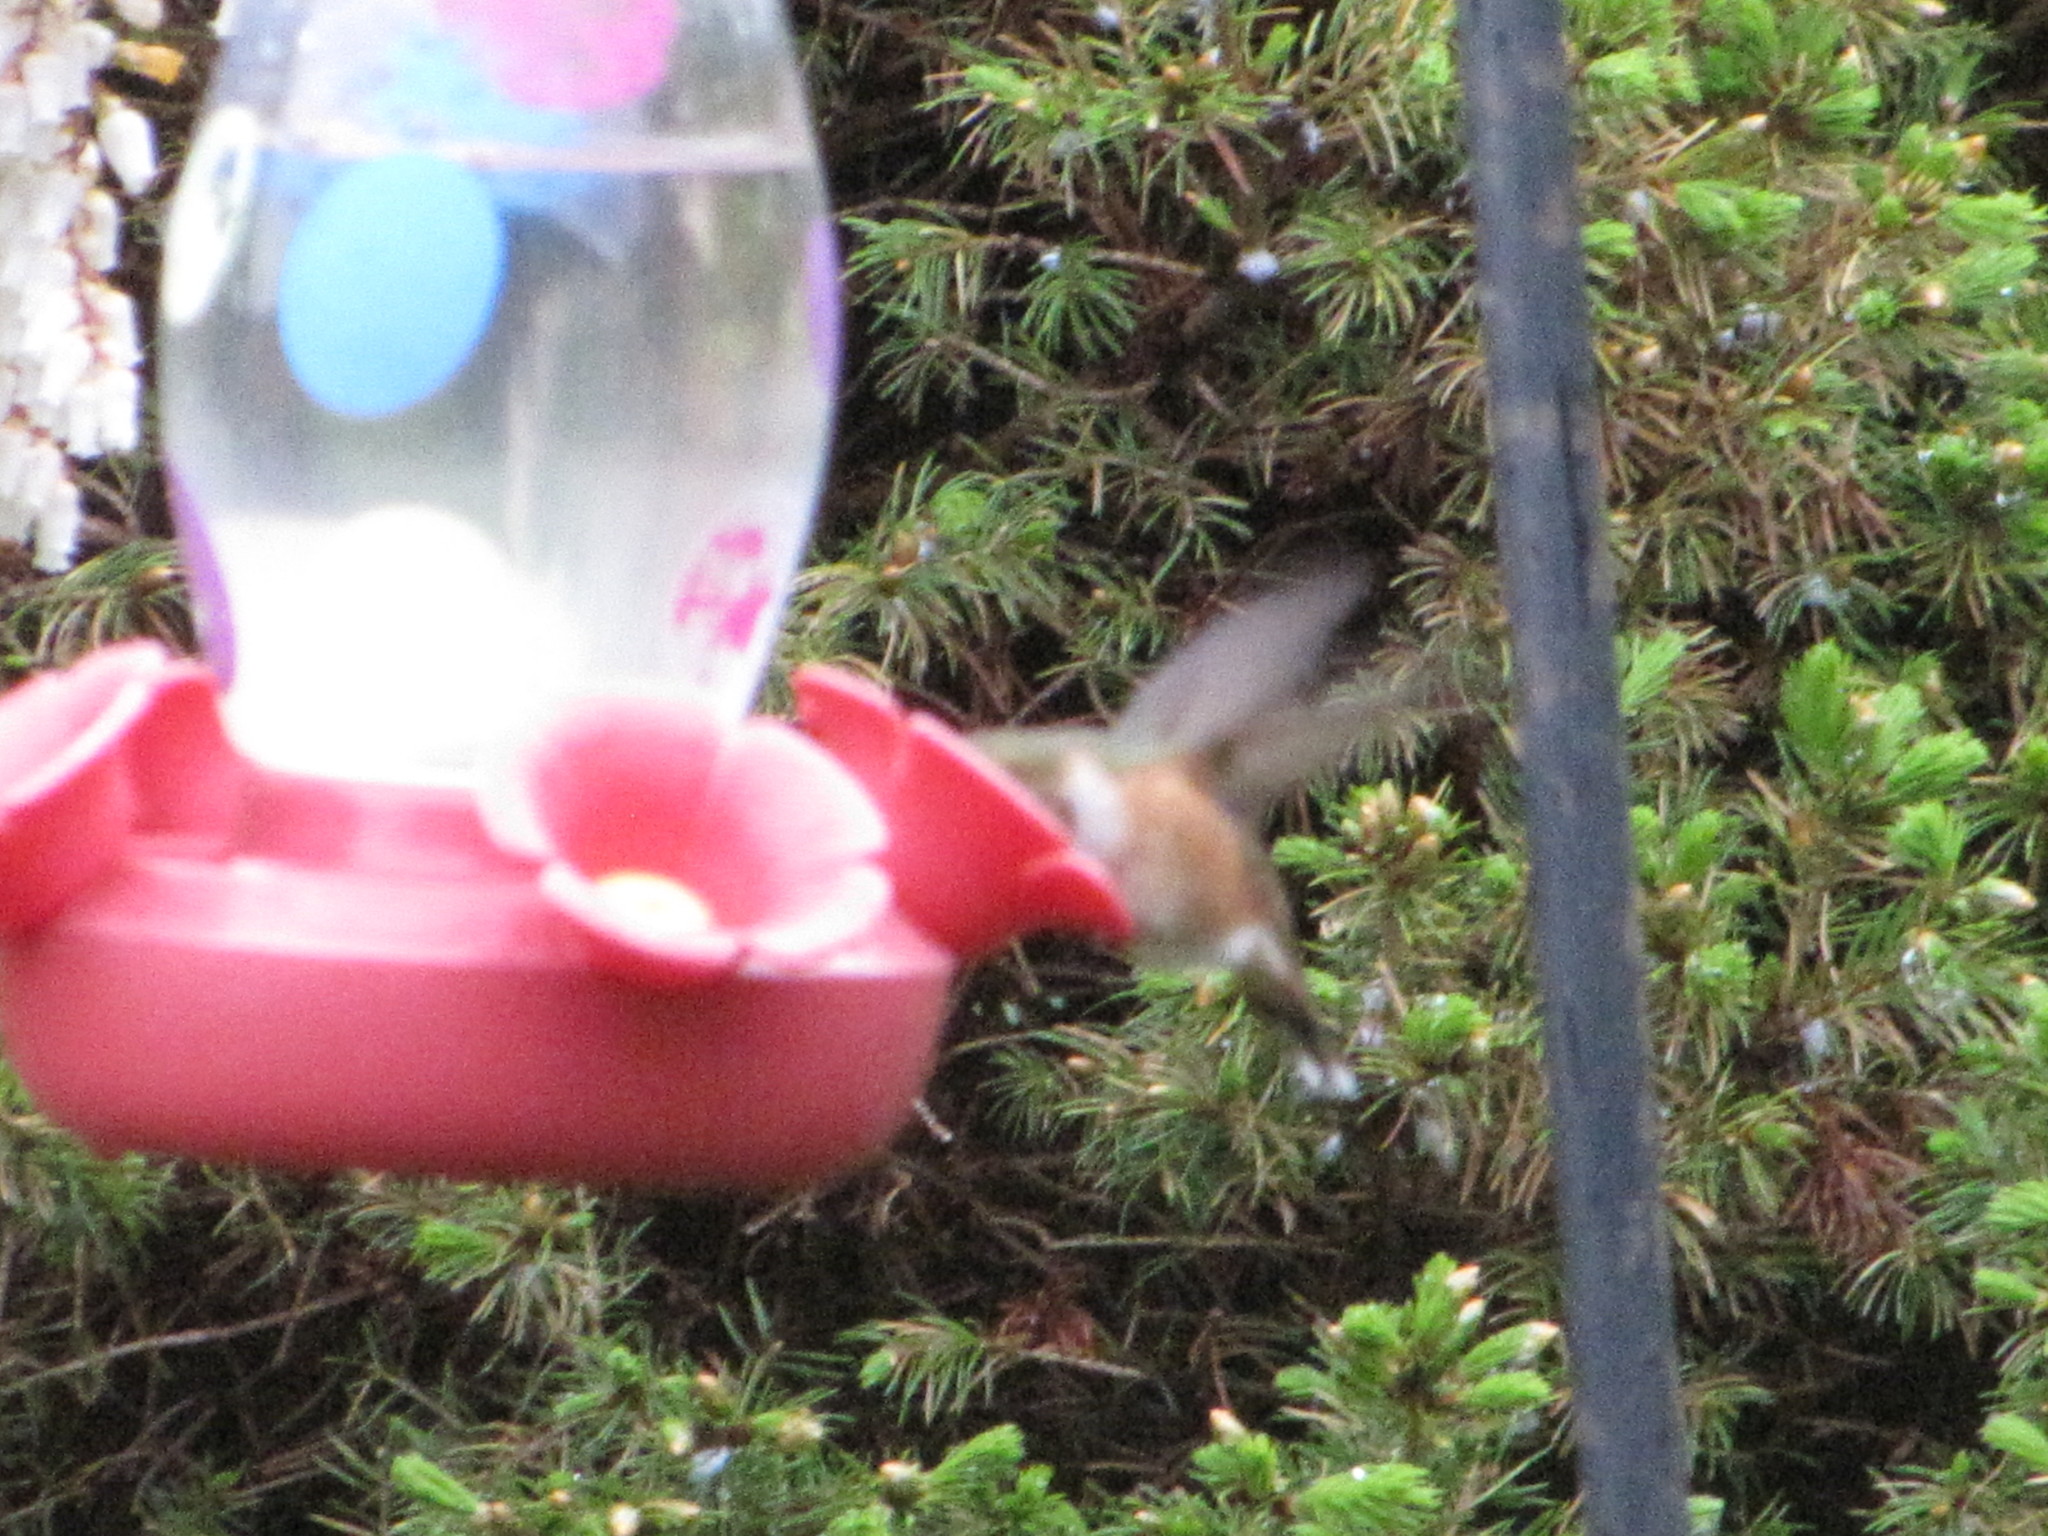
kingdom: Animalia
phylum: Chordata
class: Aves
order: Apodiformes
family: Trochilidae
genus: Selasphorus
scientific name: Selasphorus rufus
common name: Rufous hummingbird
